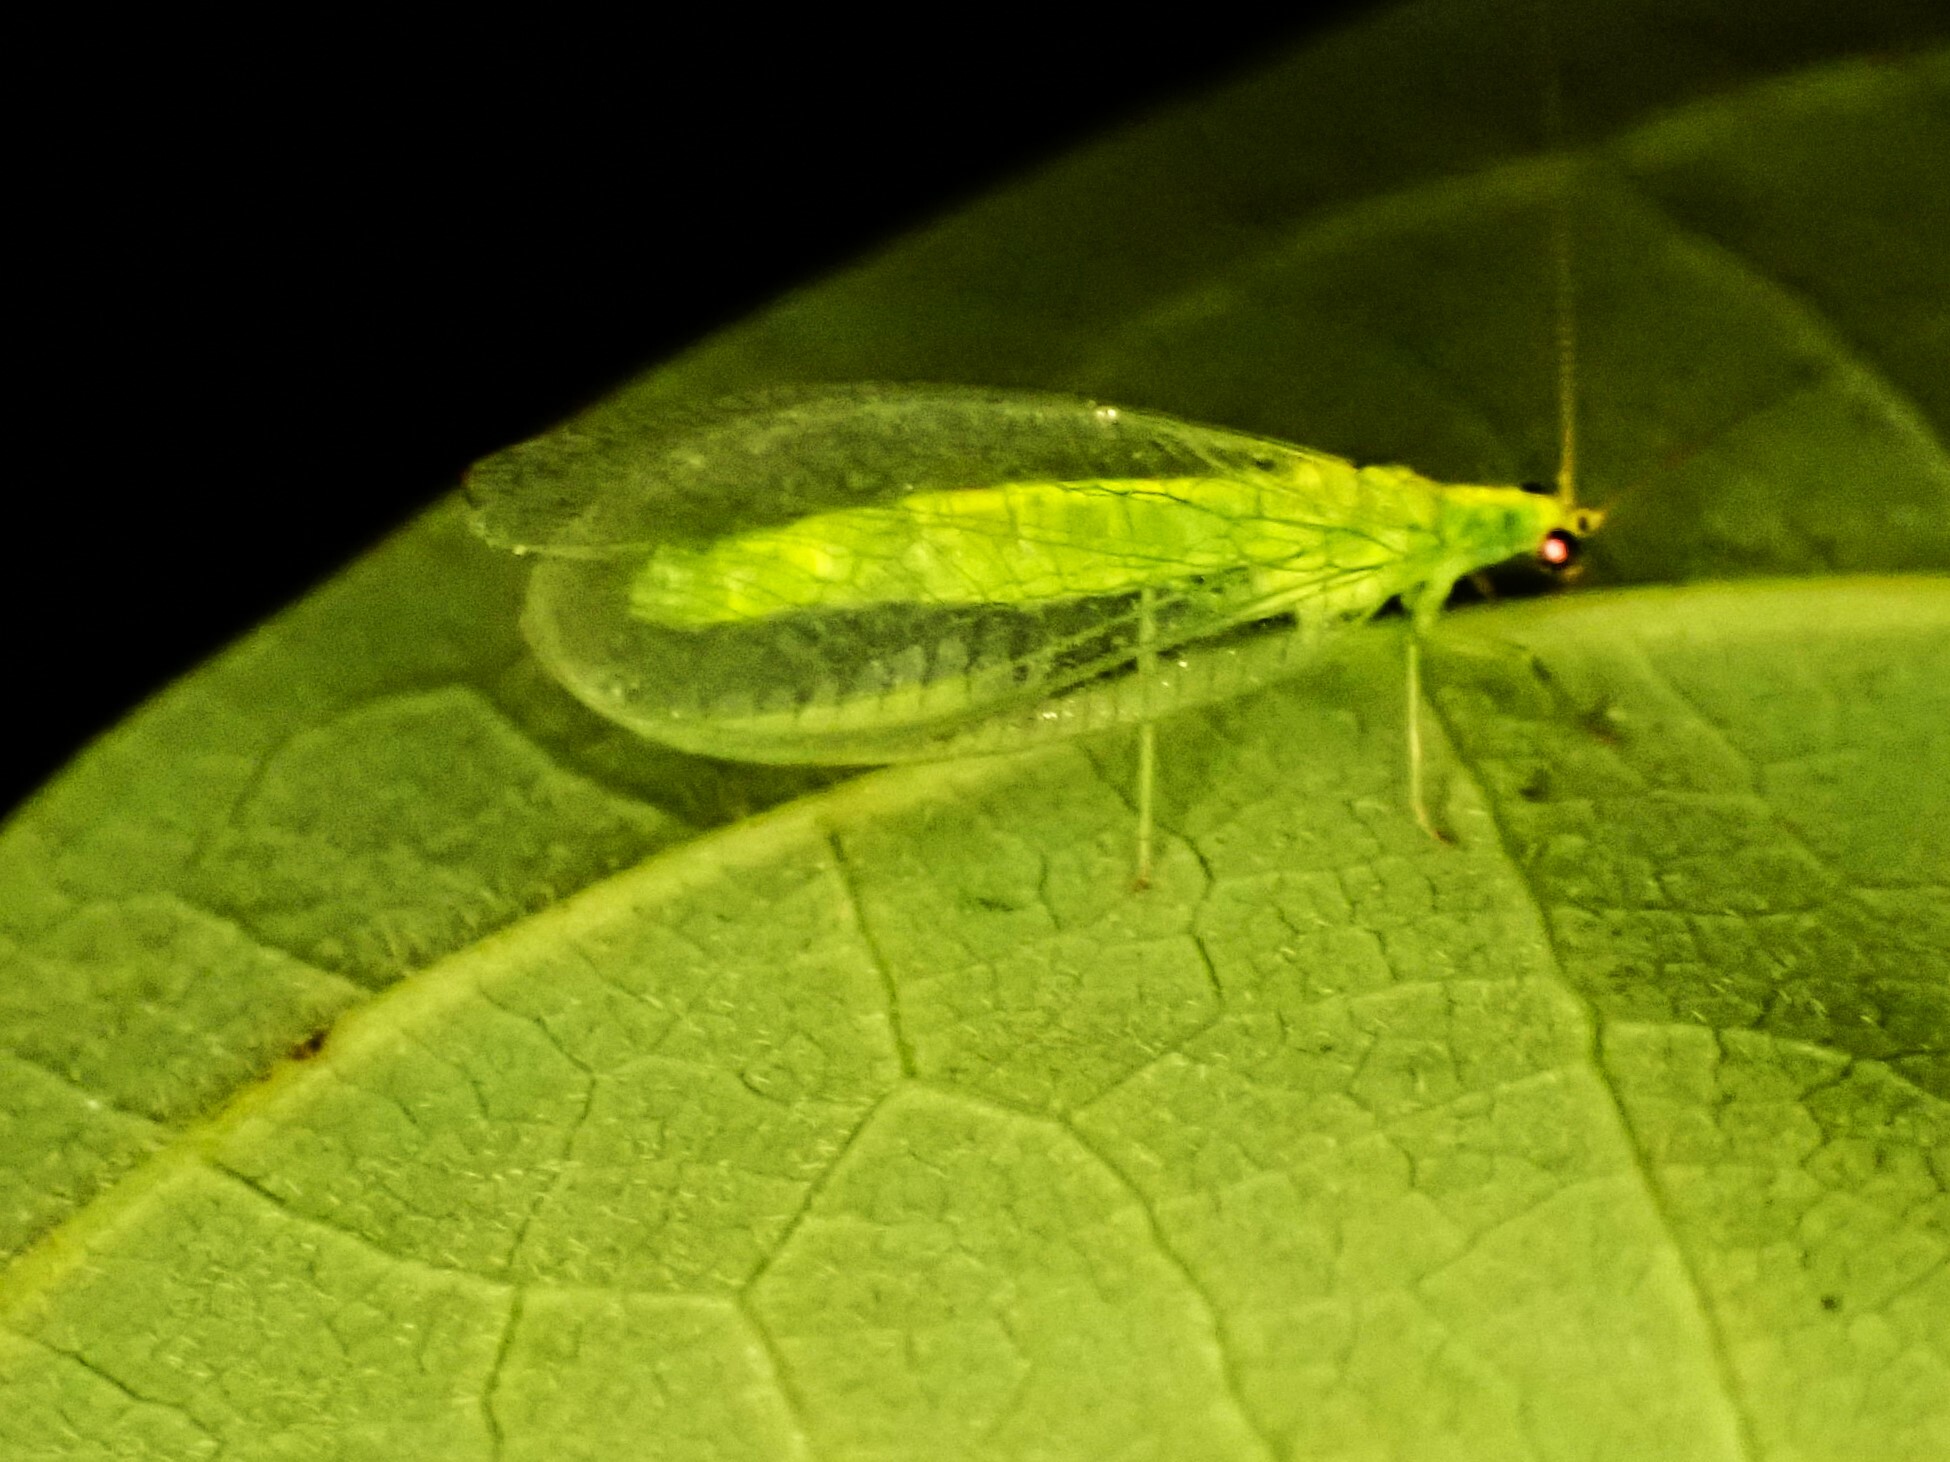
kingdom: Animalia
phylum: Arthropoda
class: Insecta
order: Neuroptera
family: Chrysopidae
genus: Mallada
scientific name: Mallada basalis
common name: Green lacewing
